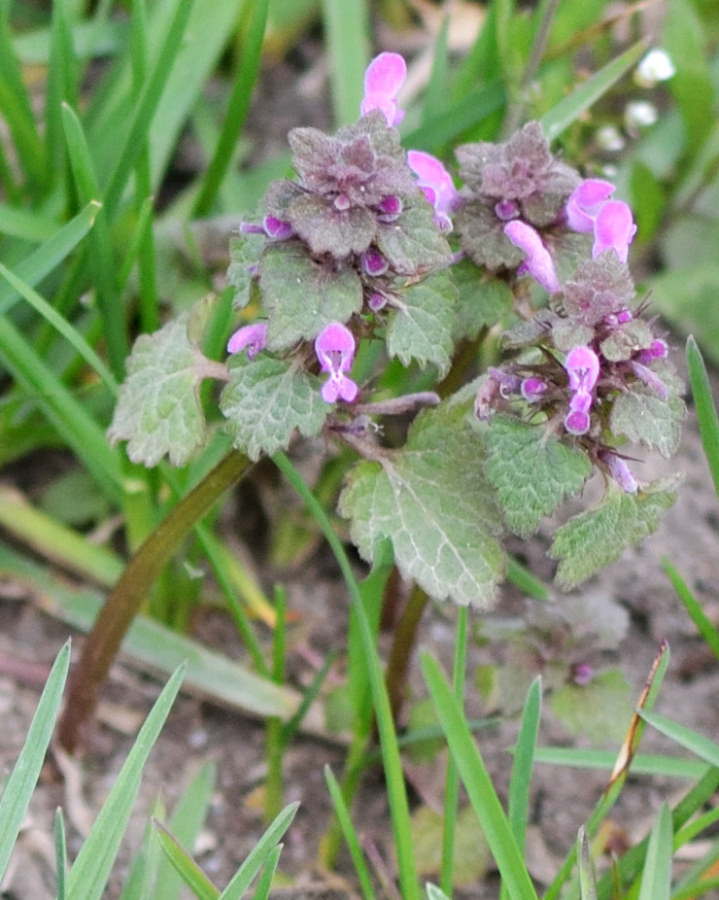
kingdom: Plantae
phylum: Tracheophyta
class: Magnoliopsida
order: Lamiales
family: Lamiaceae
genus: Lamium
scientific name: Lamium purpureum
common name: Red dead-nettle
